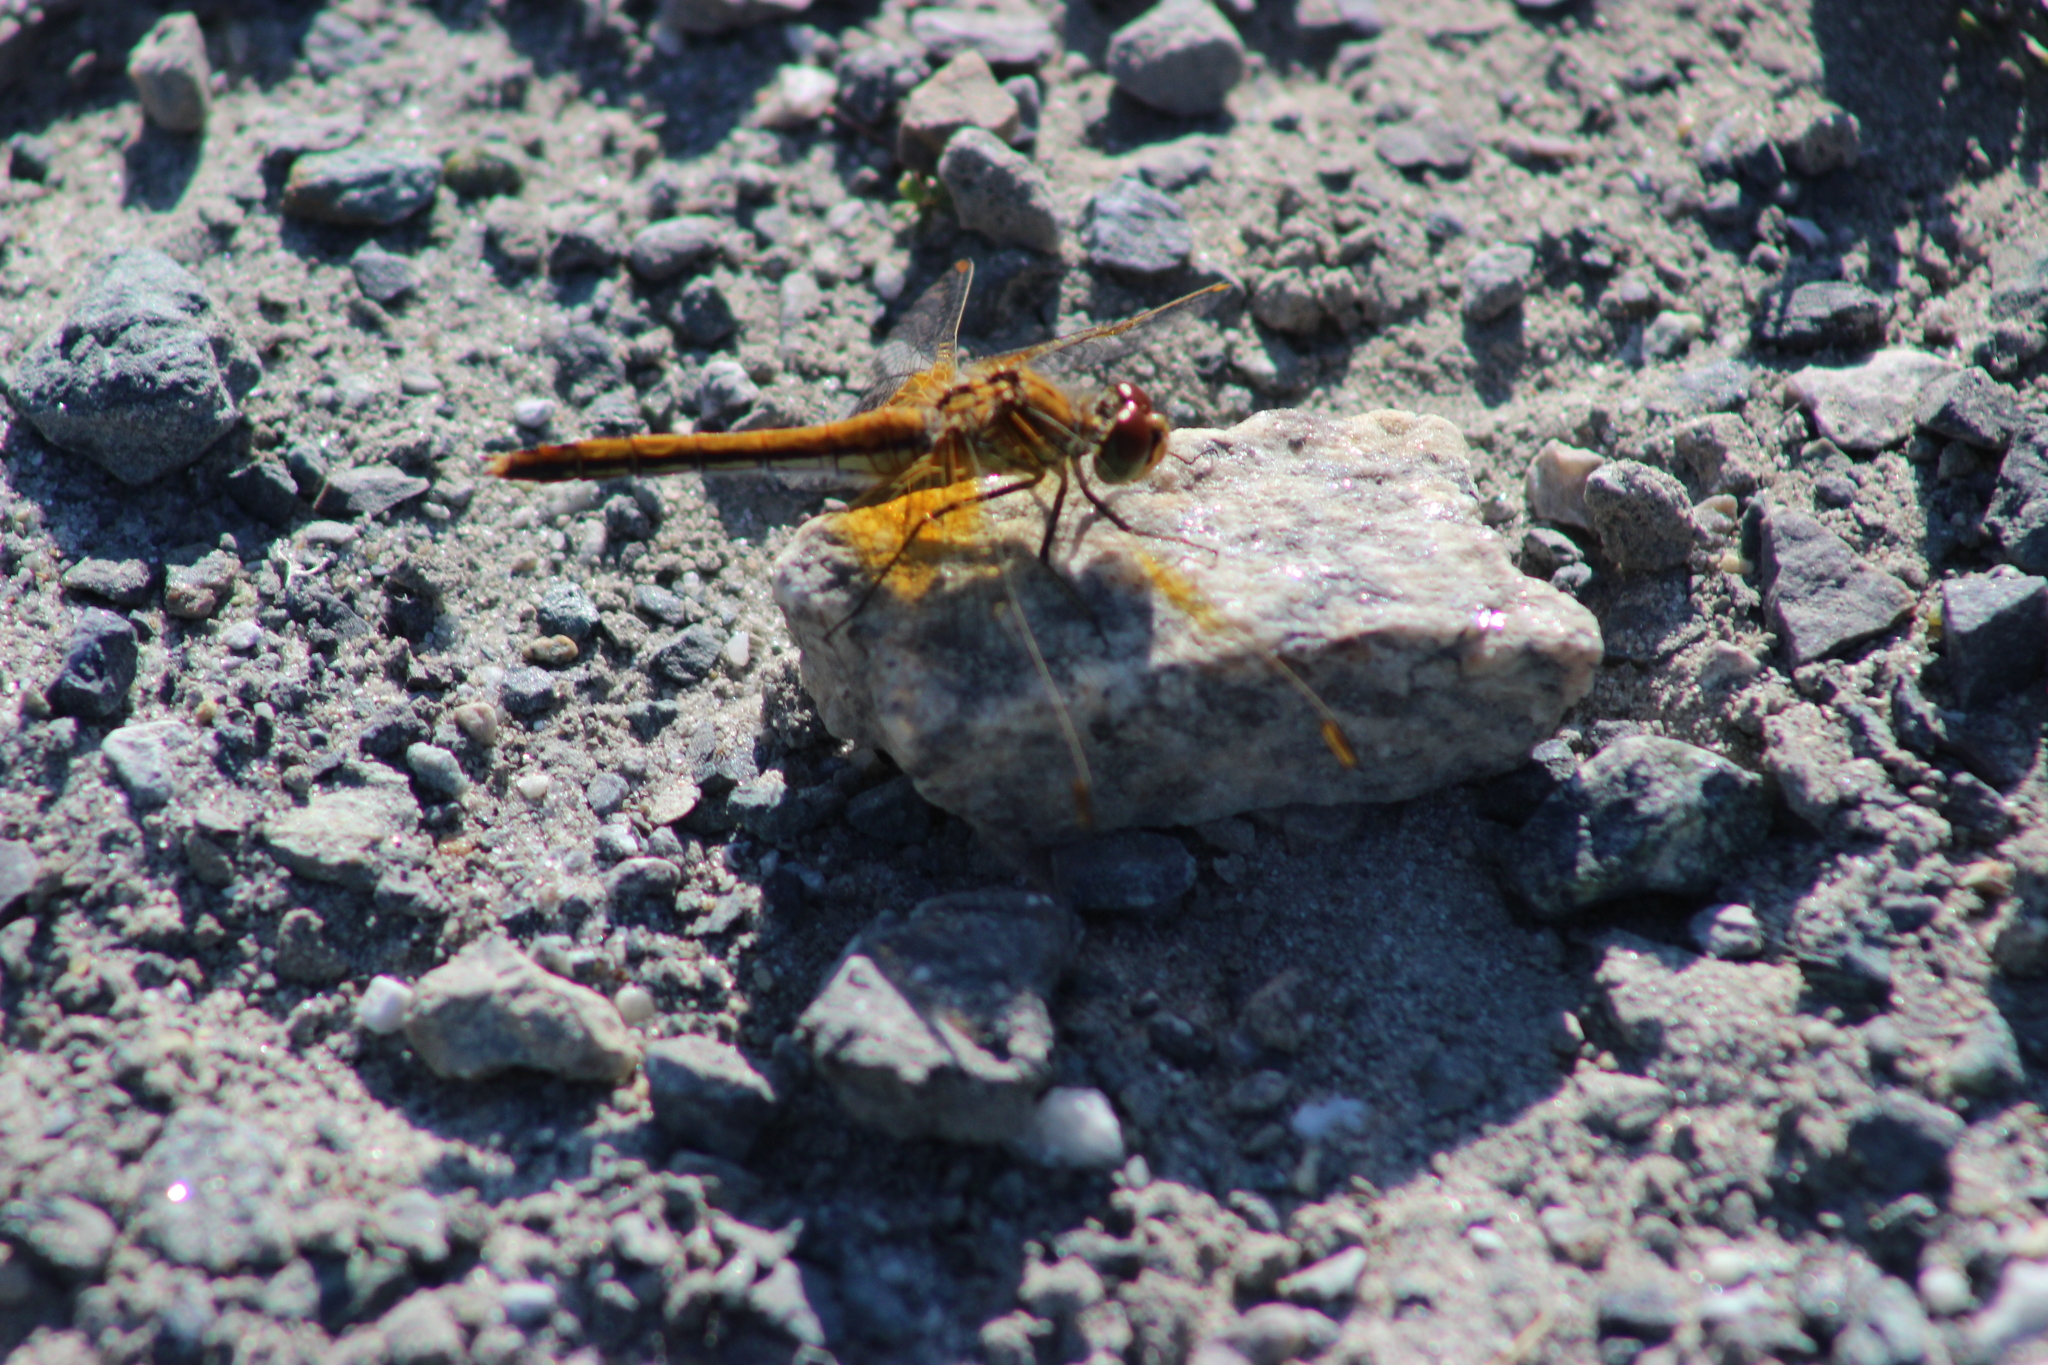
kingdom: Animalia
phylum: Arthropoda
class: Insecta
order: Odonata
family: Libellulidae
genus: Sympetrum
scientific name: Sympetrum flaveolum
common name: Yellow-winged darter
